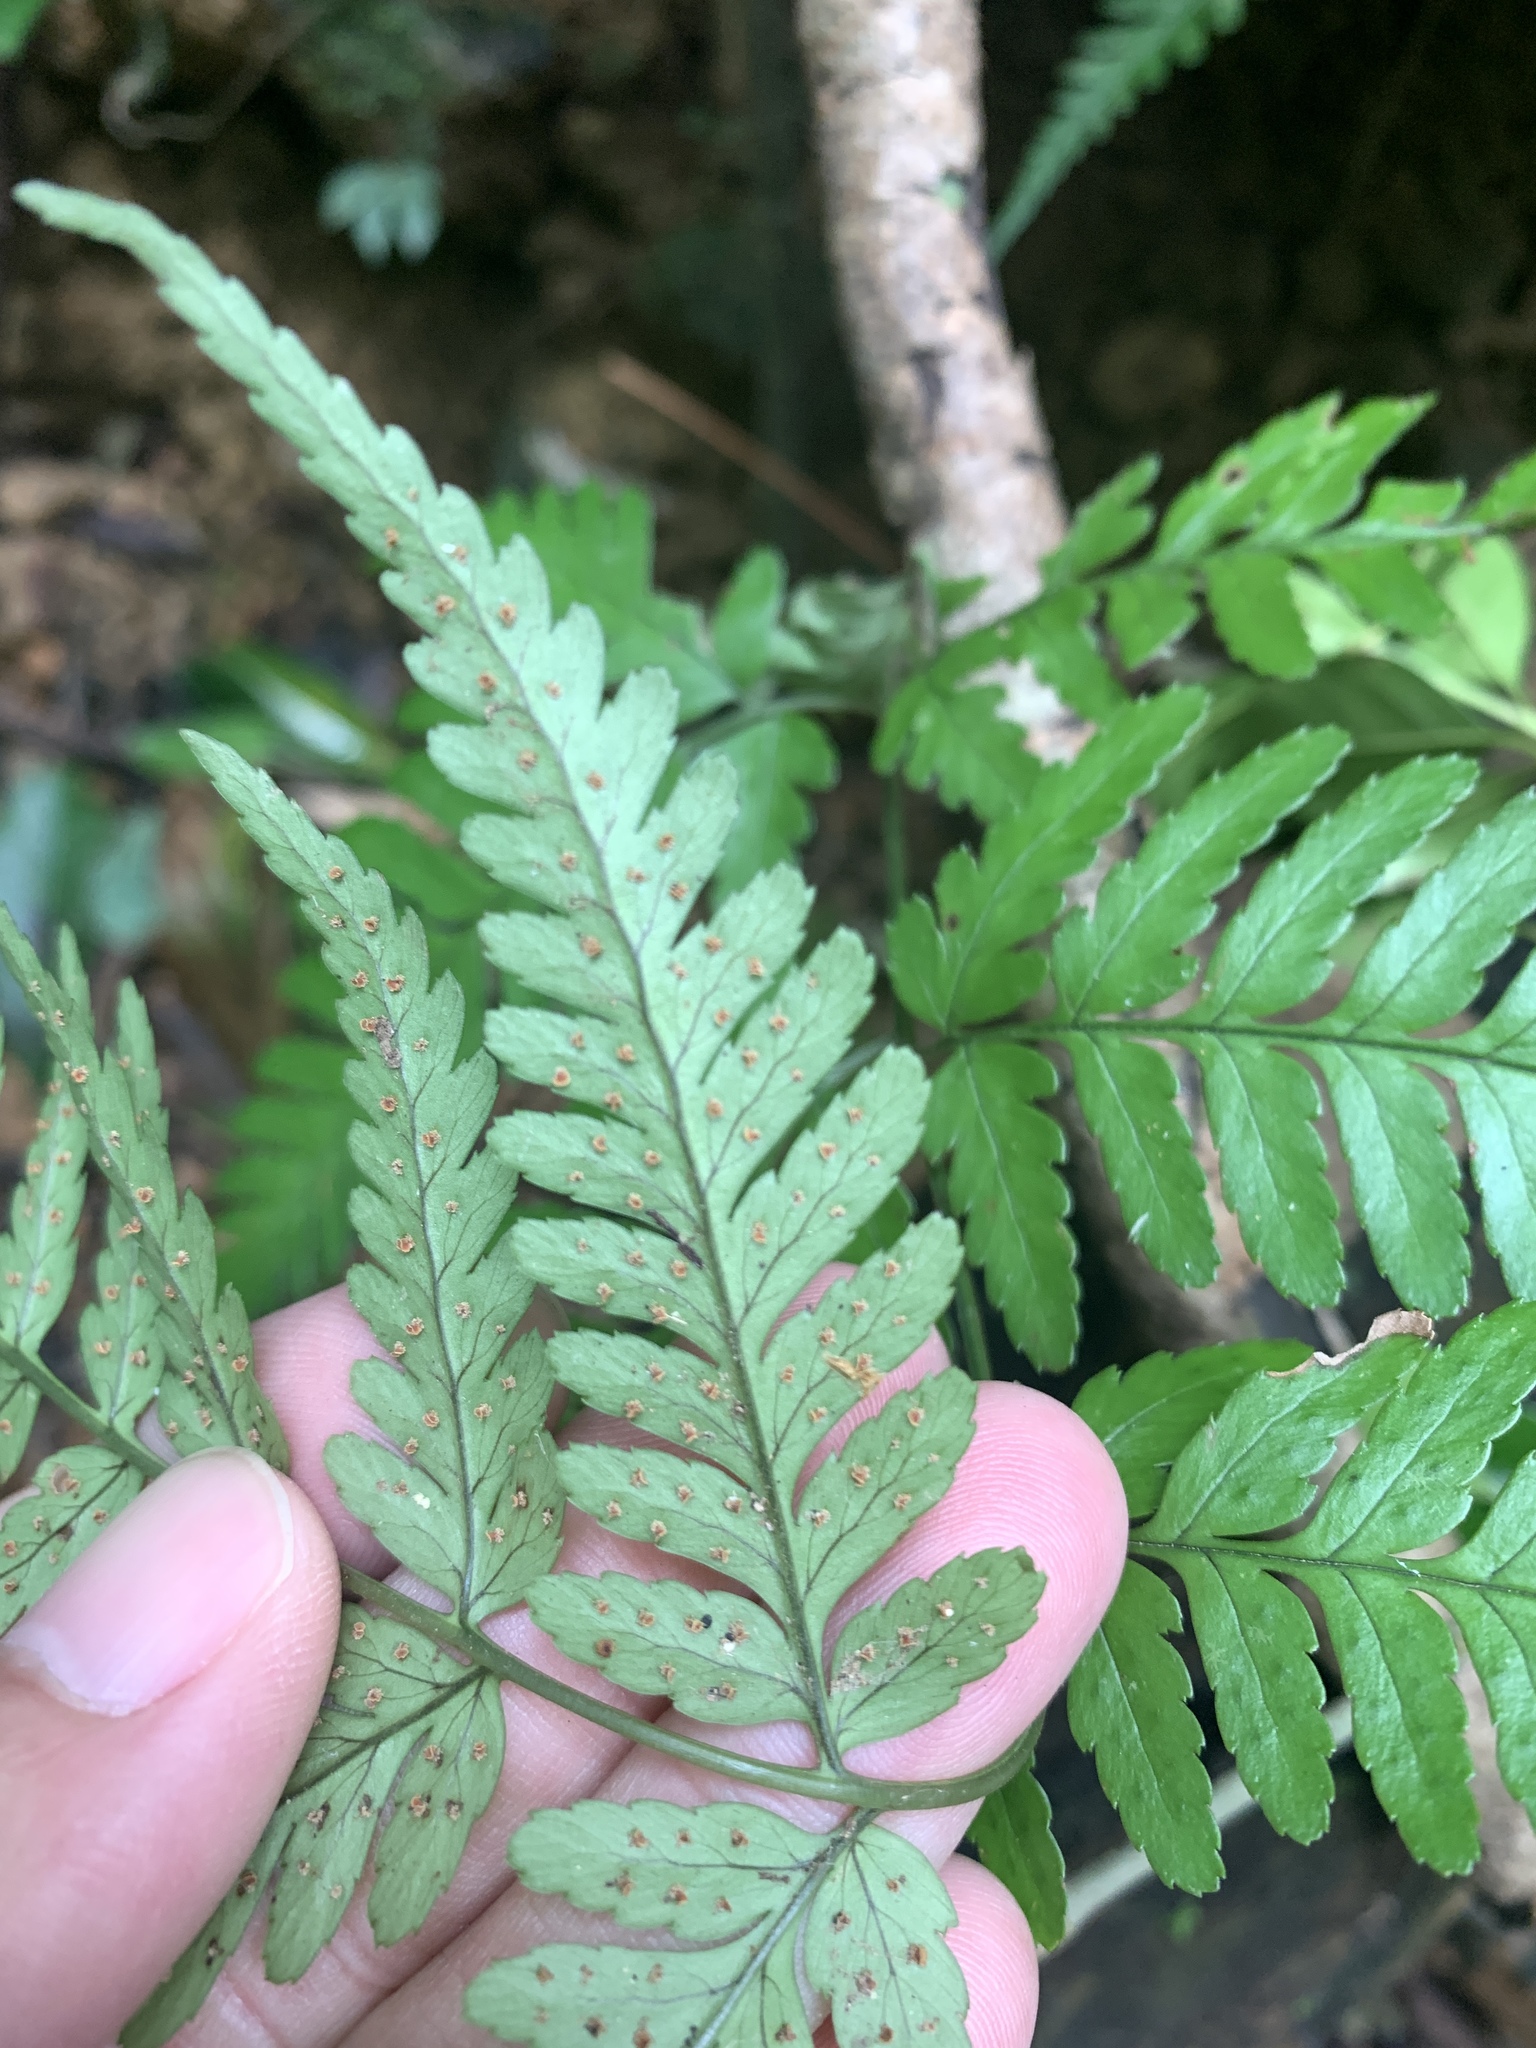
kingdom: Plantae
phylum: Tracheophyta
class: Polypodiopsida
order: Polypodiales
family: Dryopteridaceae
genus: Dryopteris
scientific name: Dryopteris sparsa
